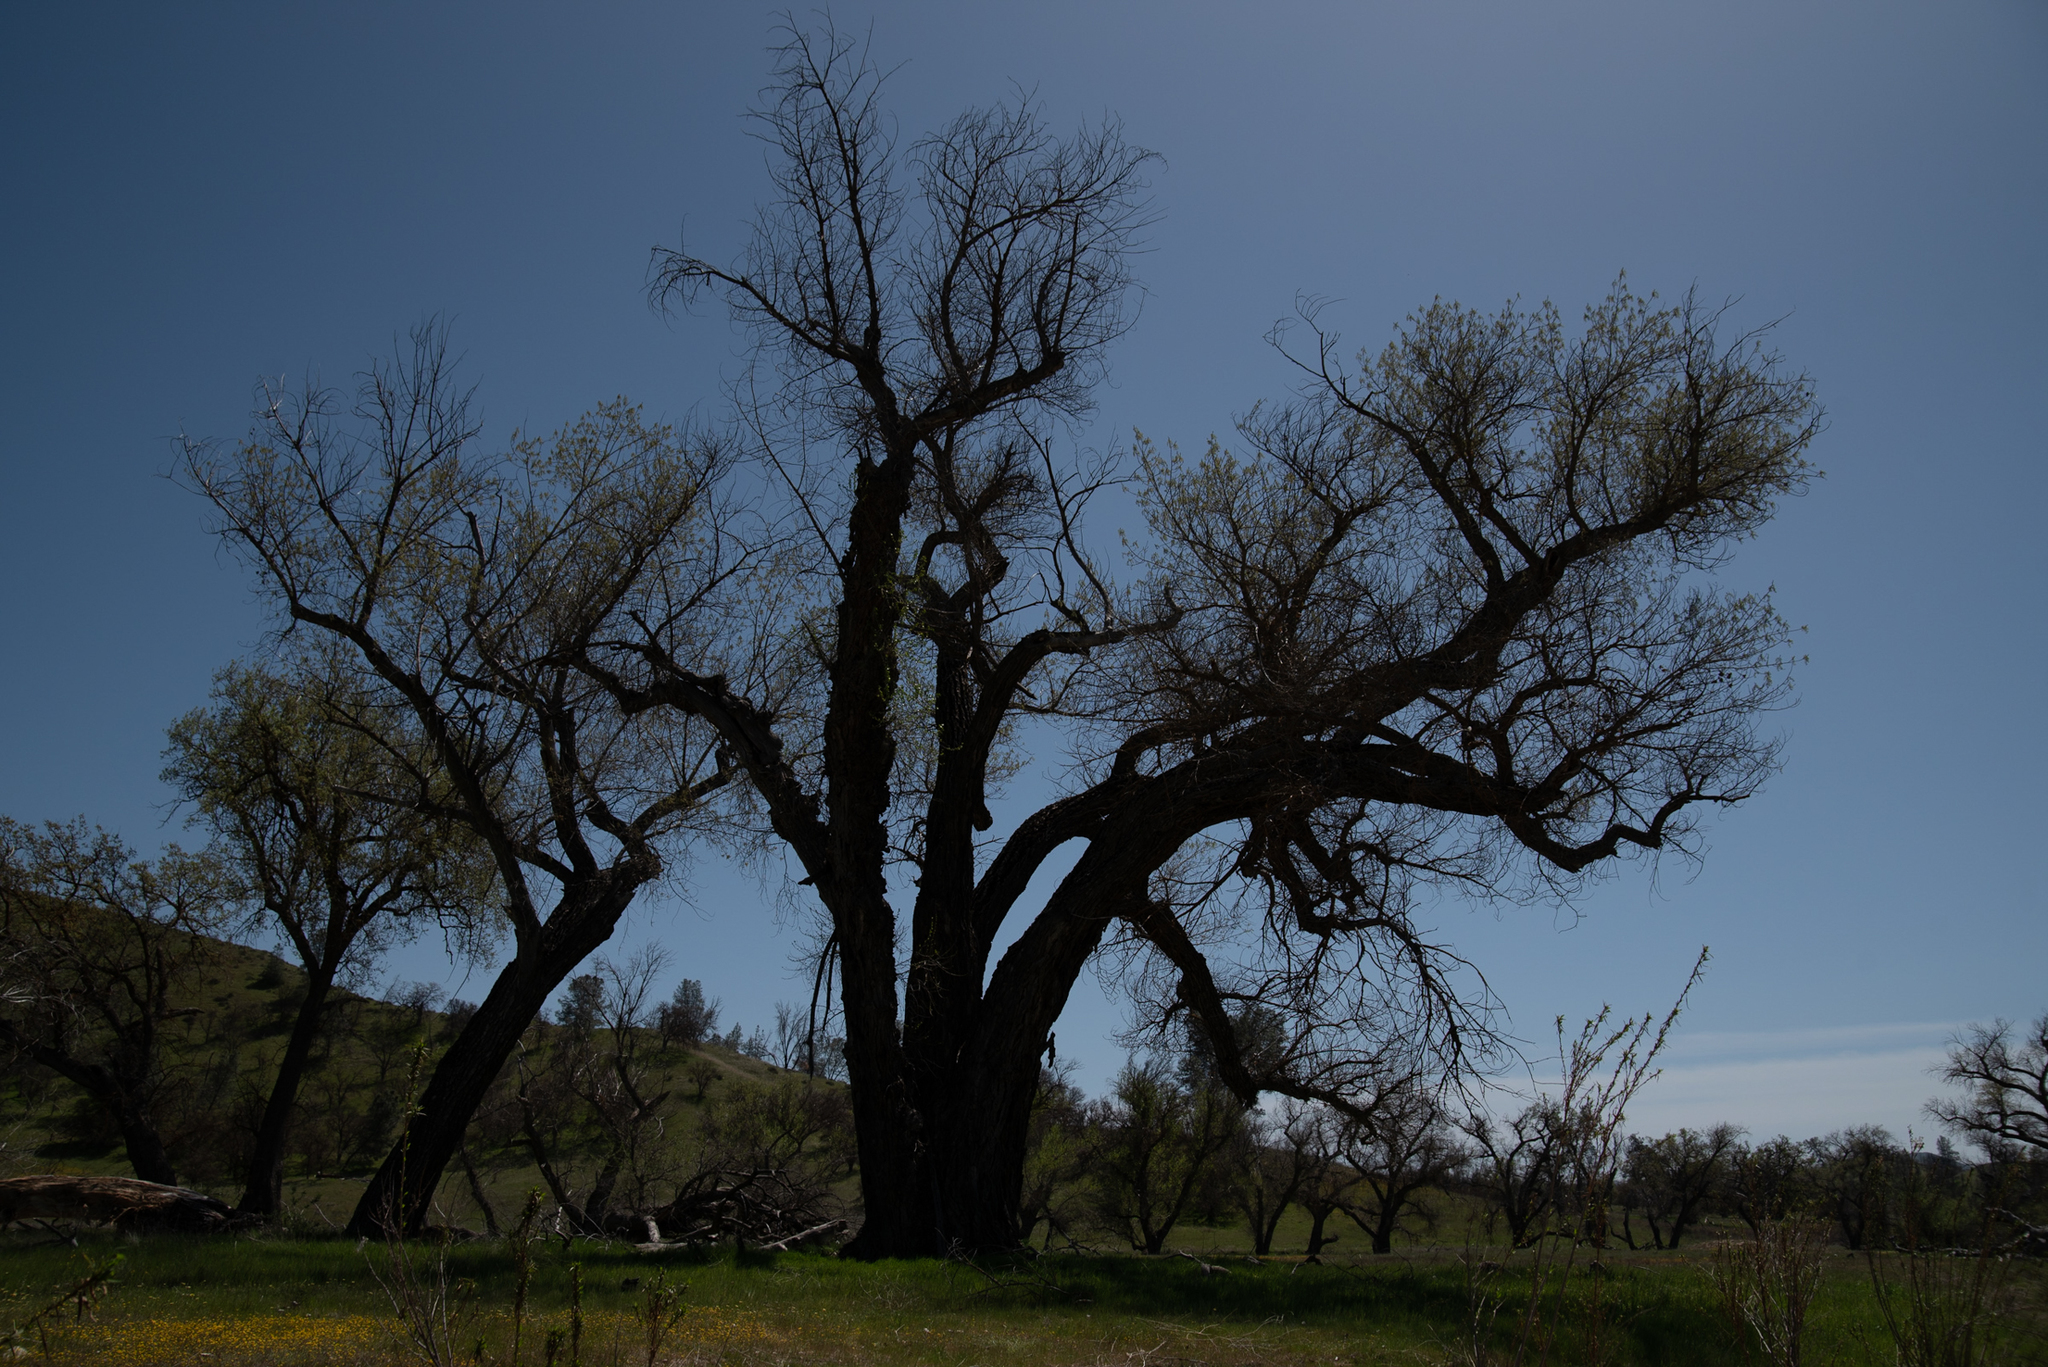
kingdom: Plantae
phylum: Tracheophyta
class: Magnoliopsida
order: Malpighiales
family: Salicaceae
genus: Populus
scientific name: Populus fremontii
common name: Fremont's cottonwood
